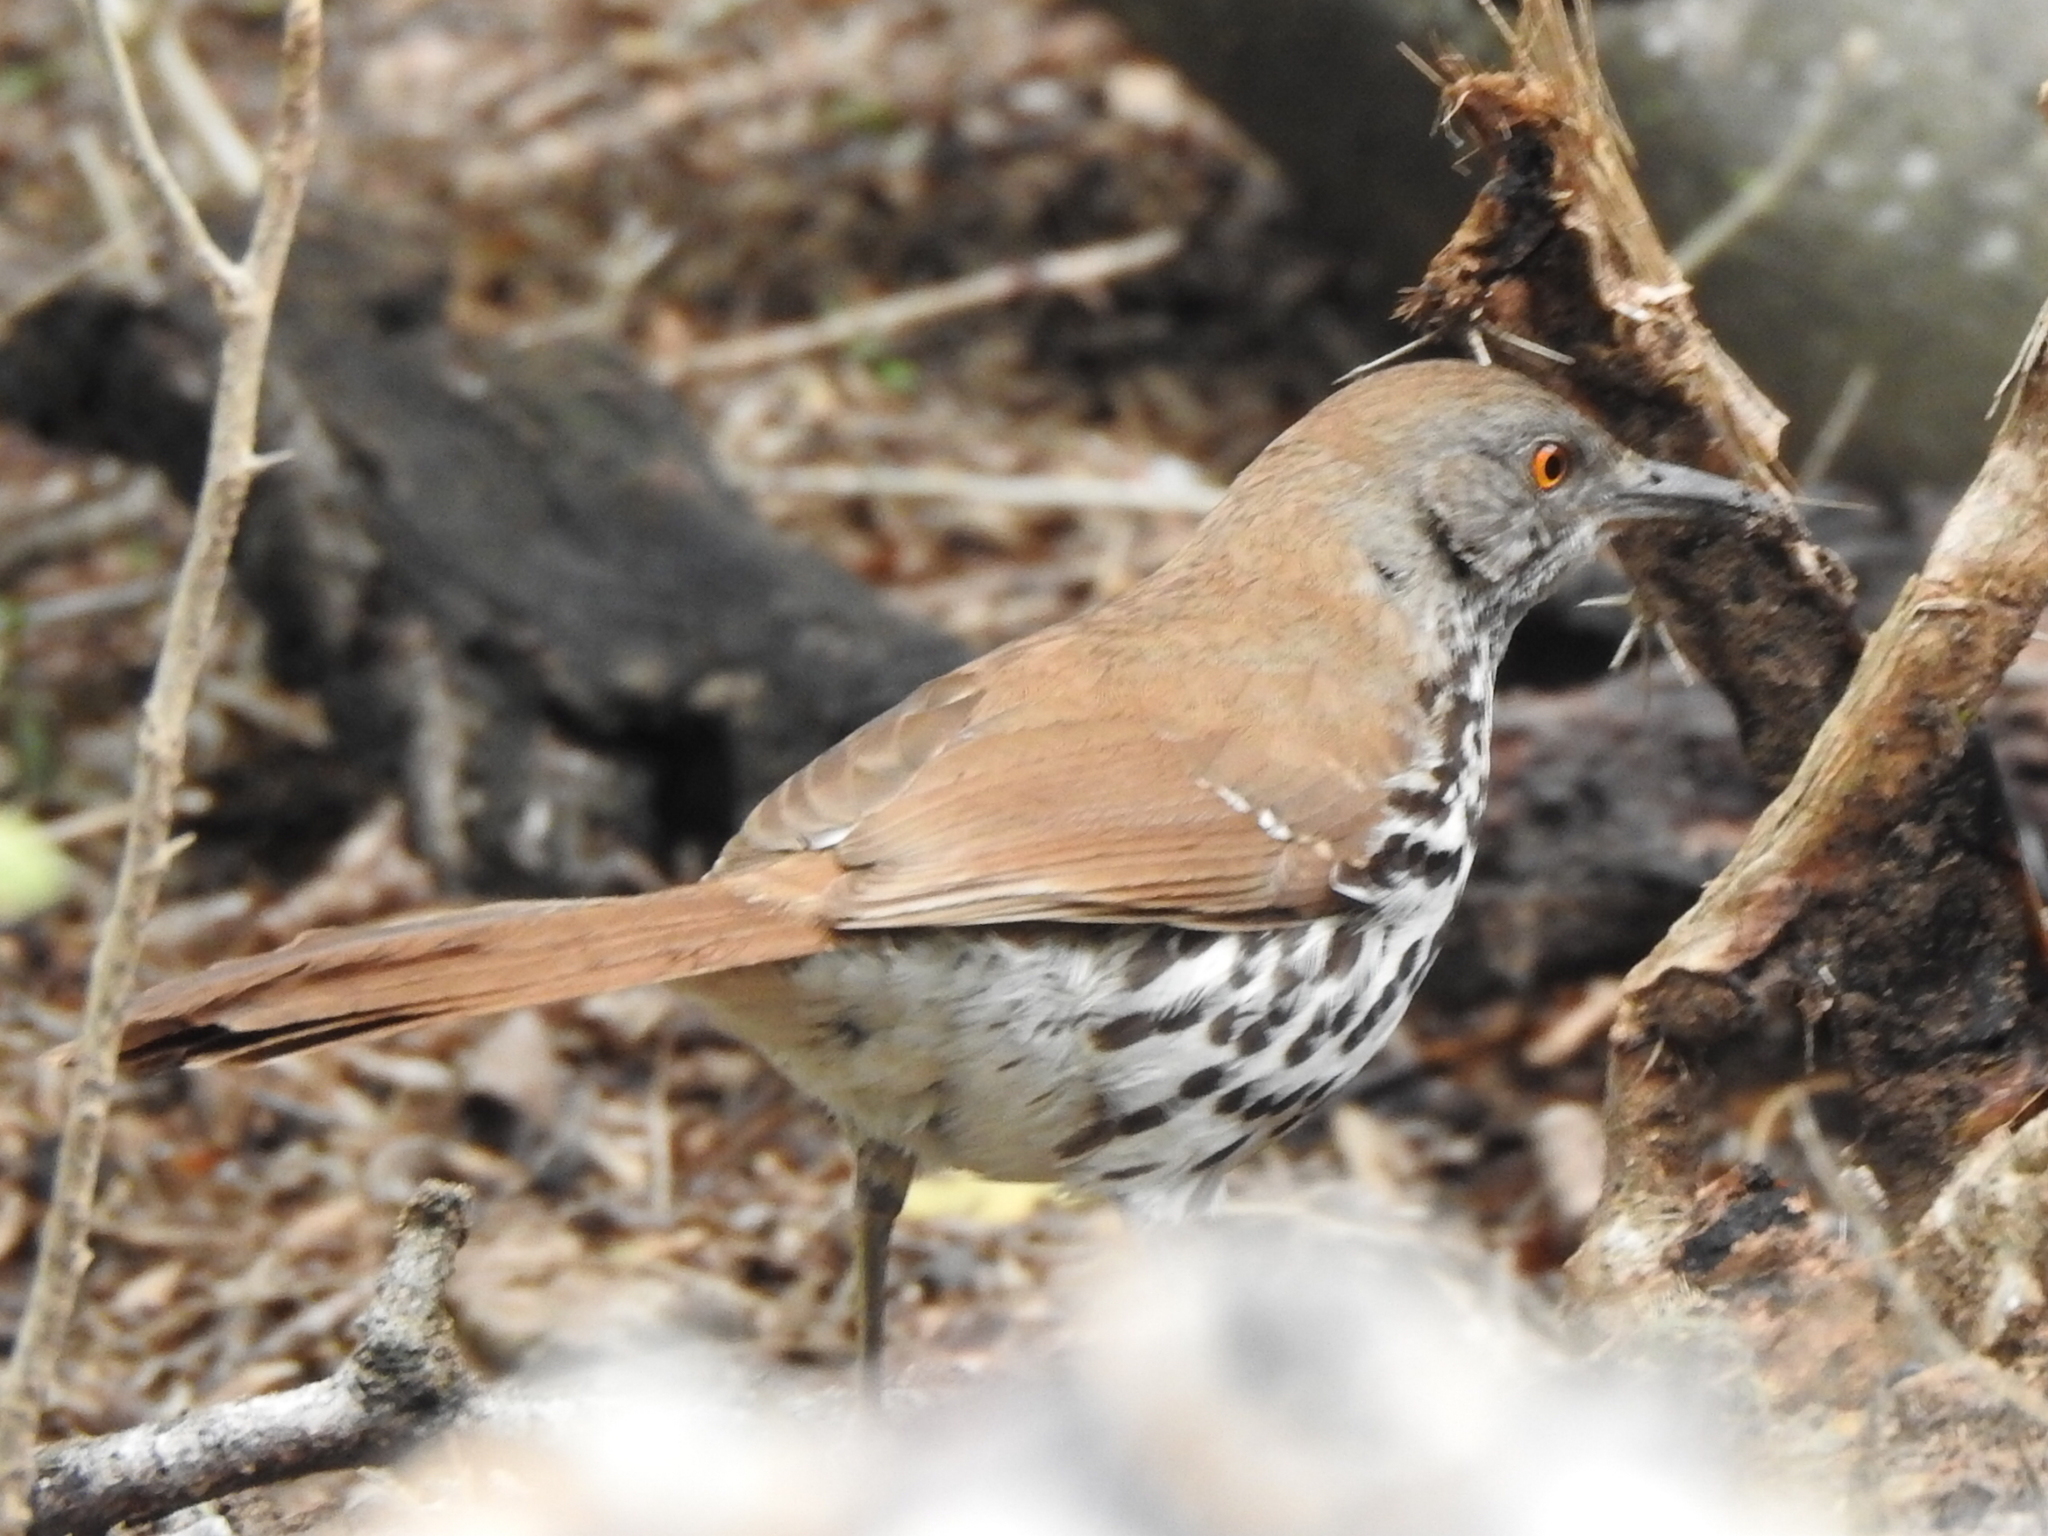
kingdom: Animalia
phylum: Chordata
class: Aves
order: Passeriformes
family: Mimidae
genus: Toxostoma
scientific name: Toxostoma rufum
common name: Brown thrasher
